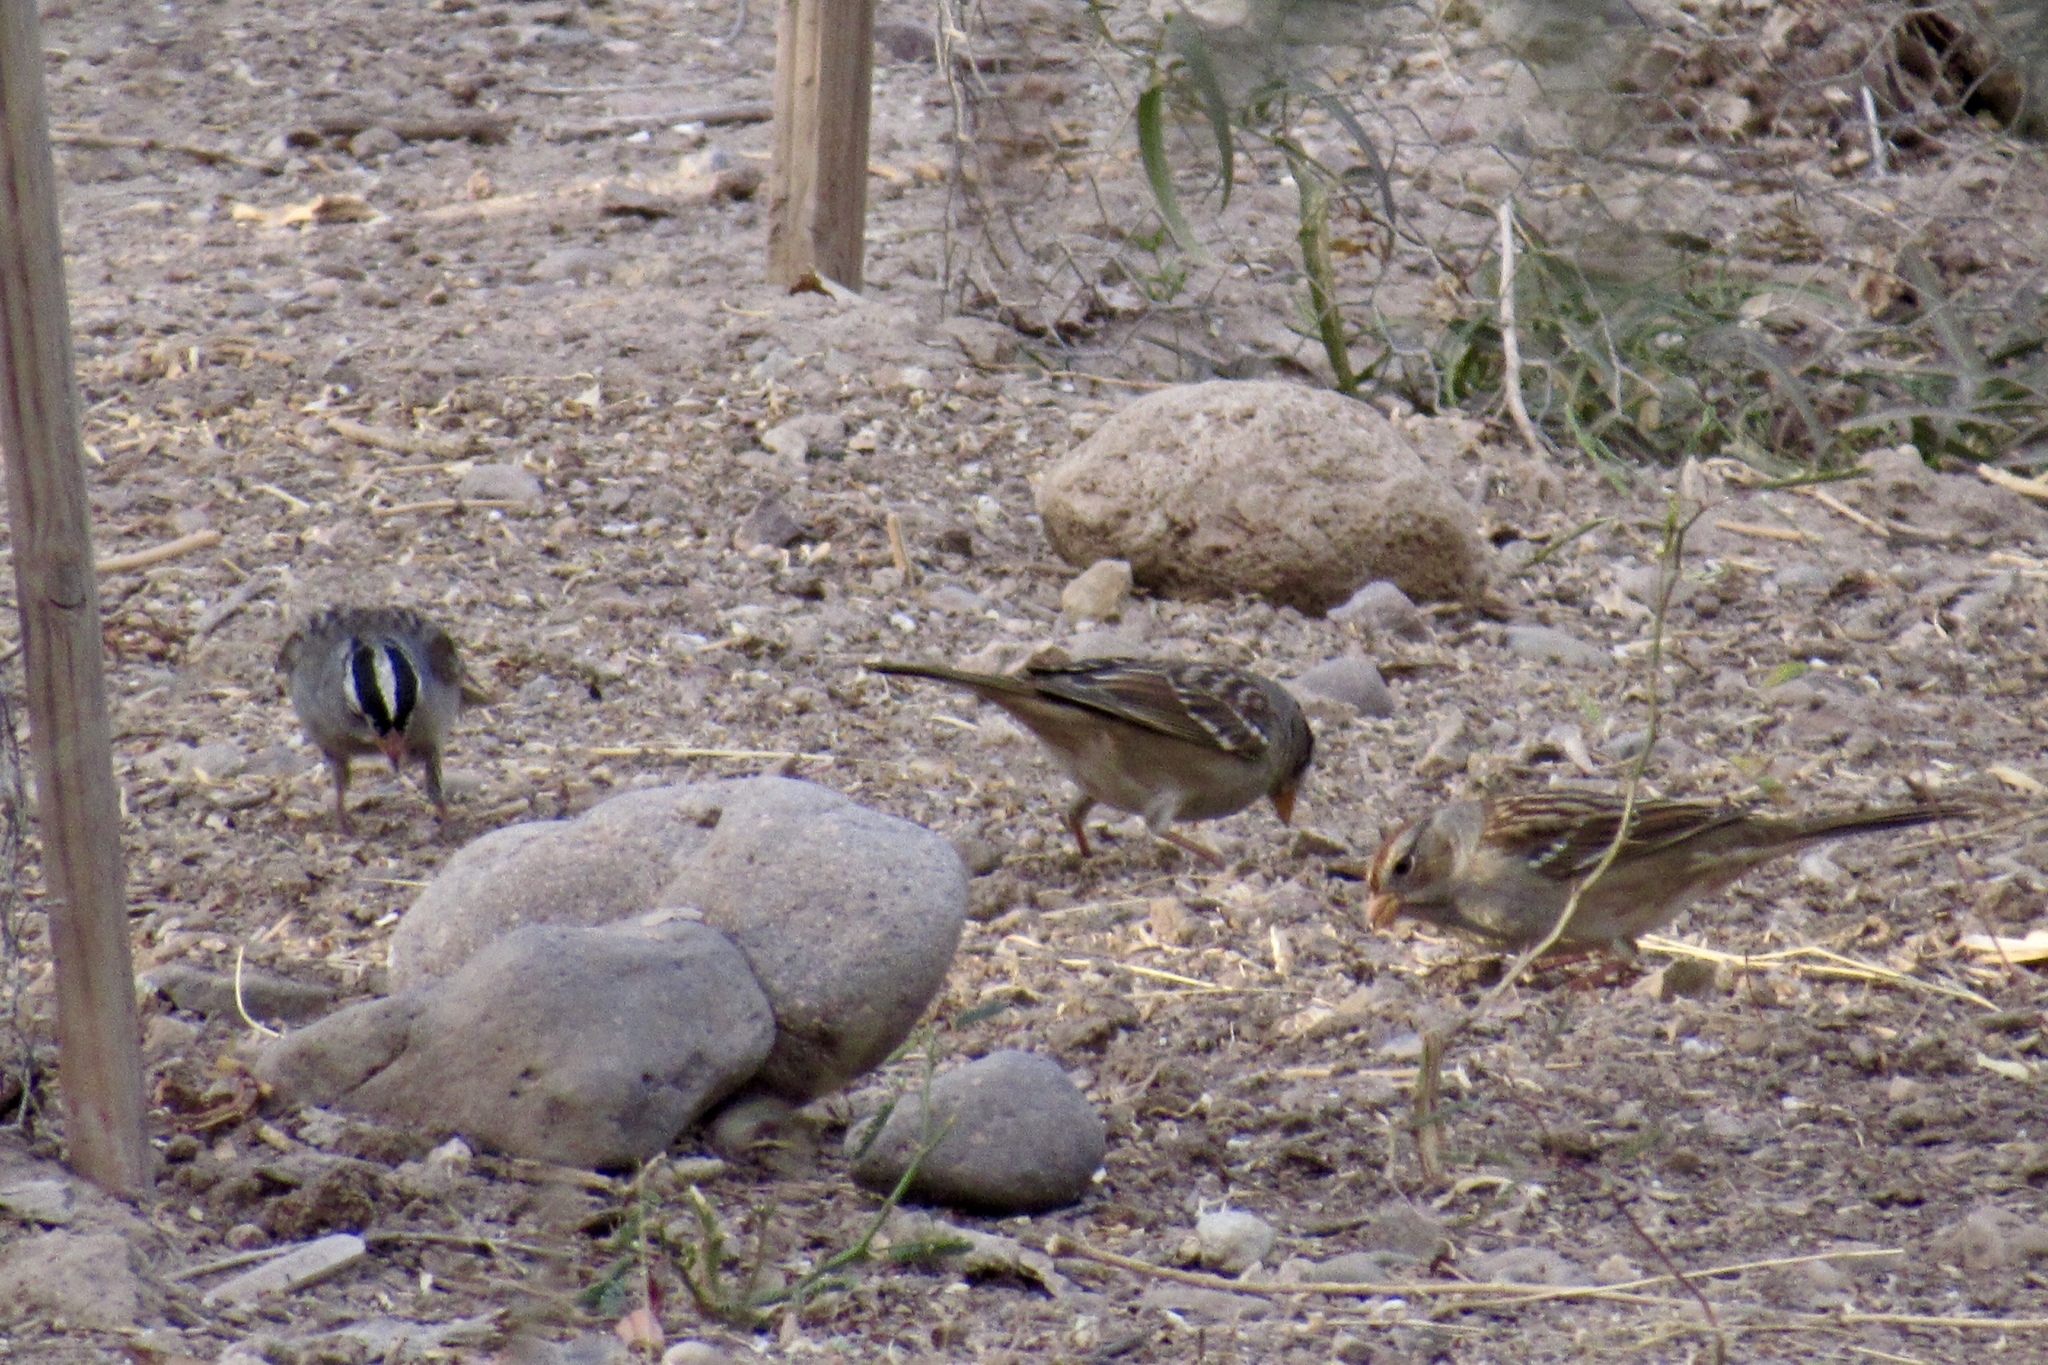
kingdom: Animalia
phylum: Chordata
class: Aves
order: Passeriformes
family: Passerellidae
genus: Zonotrichia
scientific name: Zonotrichia leucophrys
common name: White-crowned sparrow
